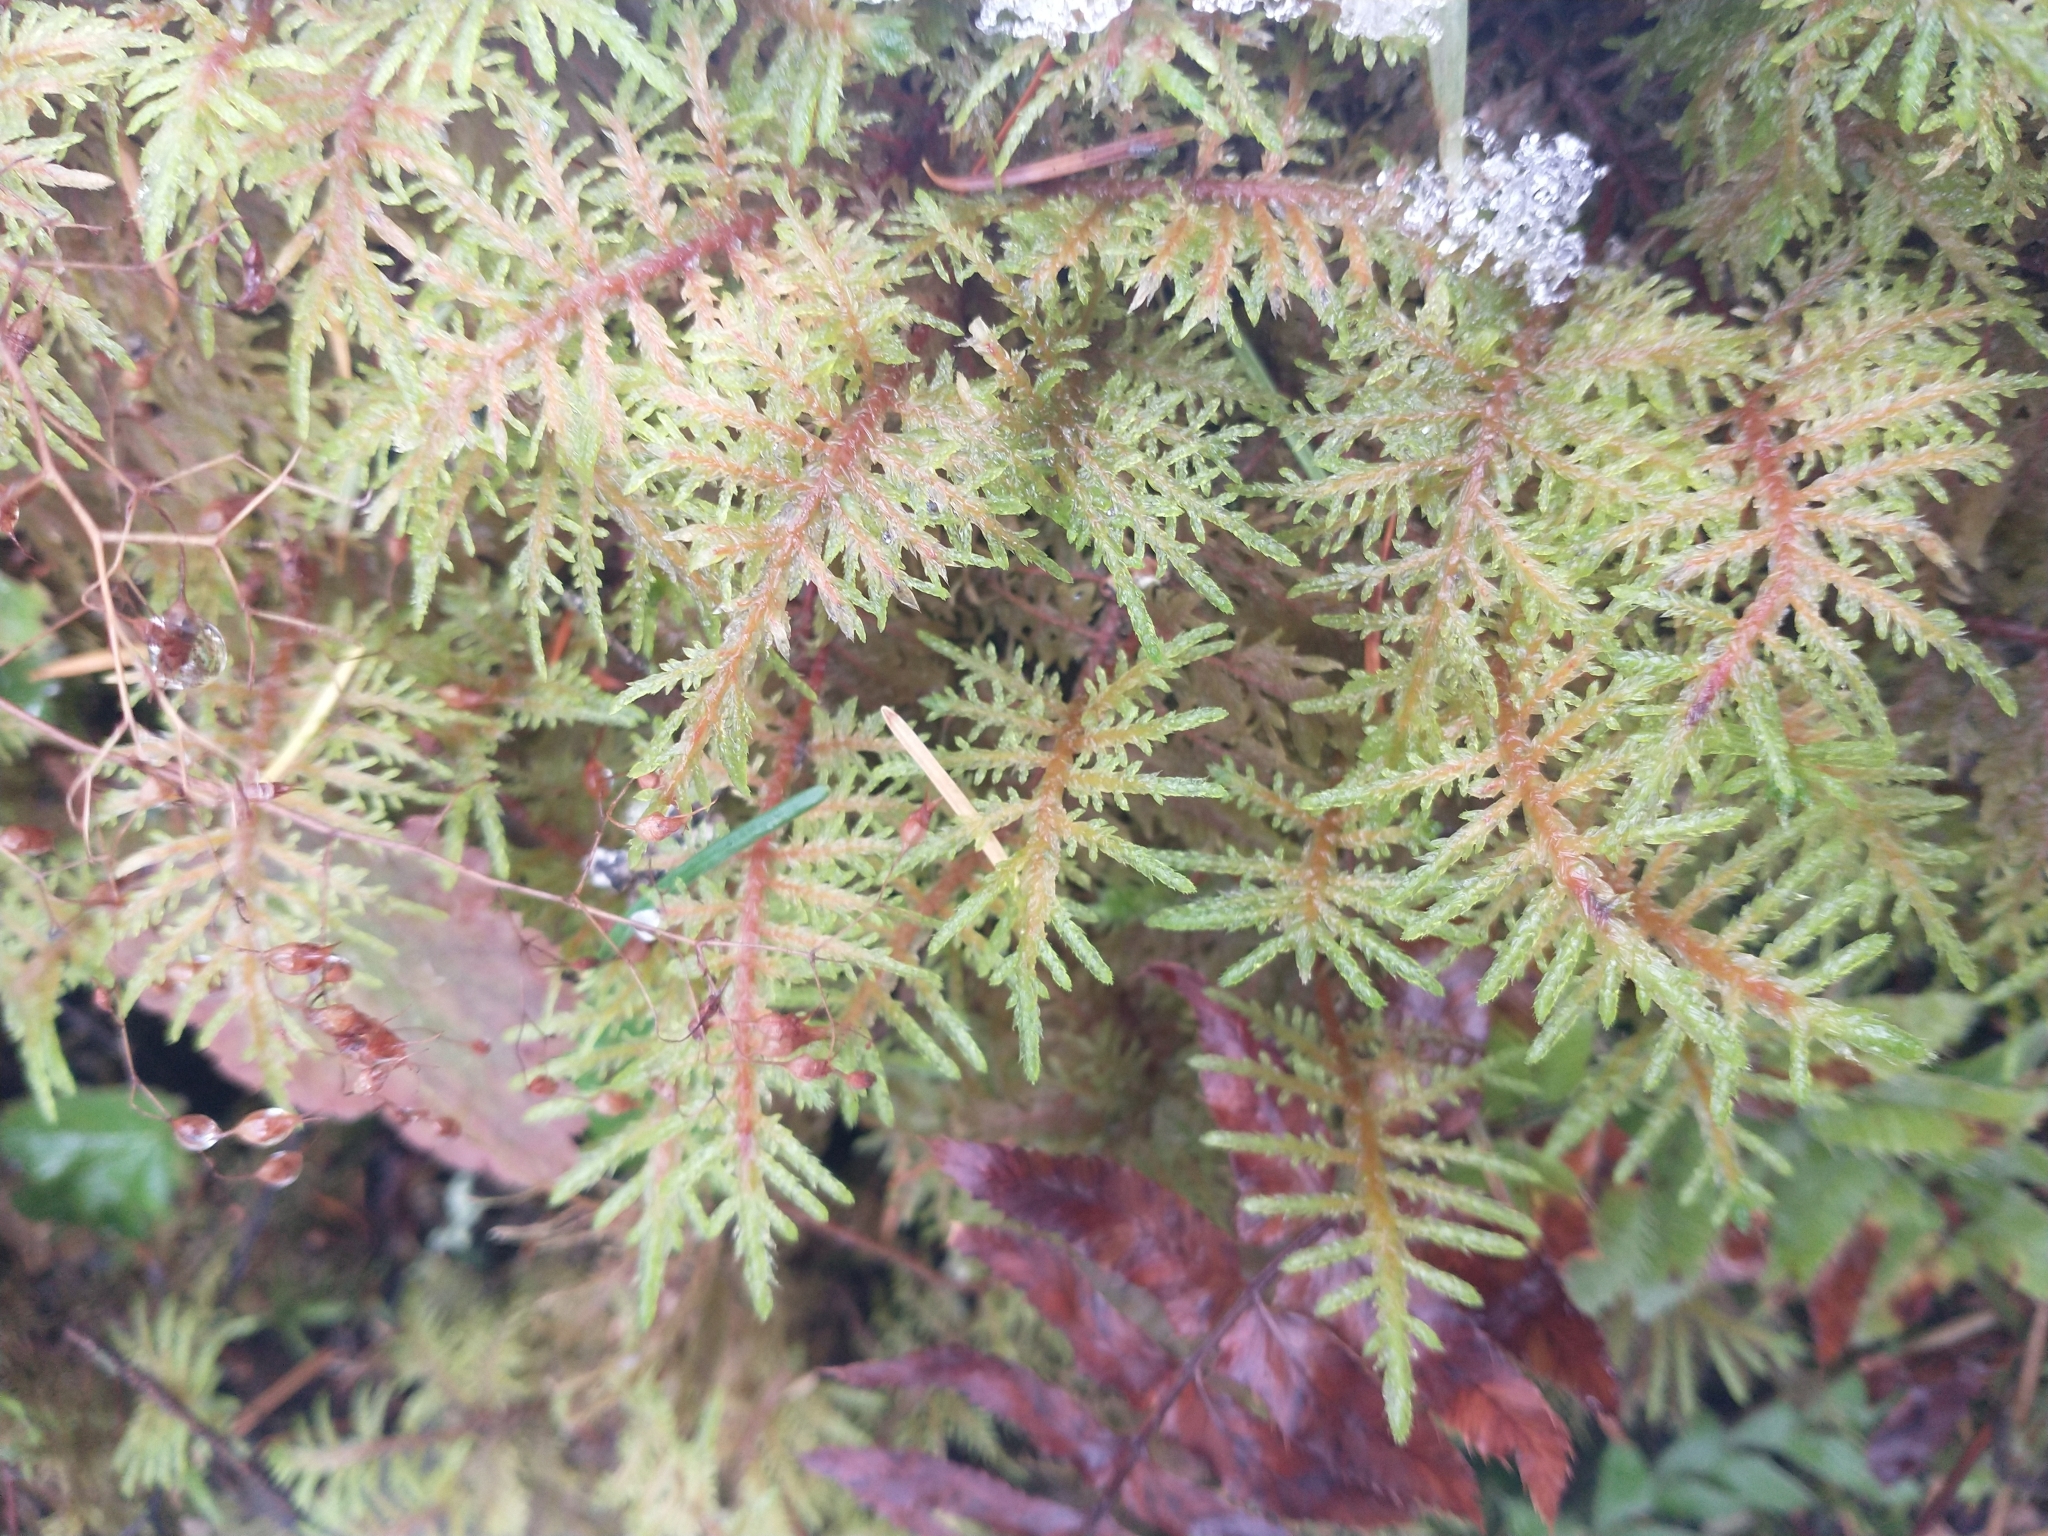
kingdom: Plantae
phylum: Bryophyta
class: Bryopsida
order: Hypnales
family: Hylocomiaceae
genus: Hylocomium
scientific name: Hylocomium splendens
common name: Stairstep moss
